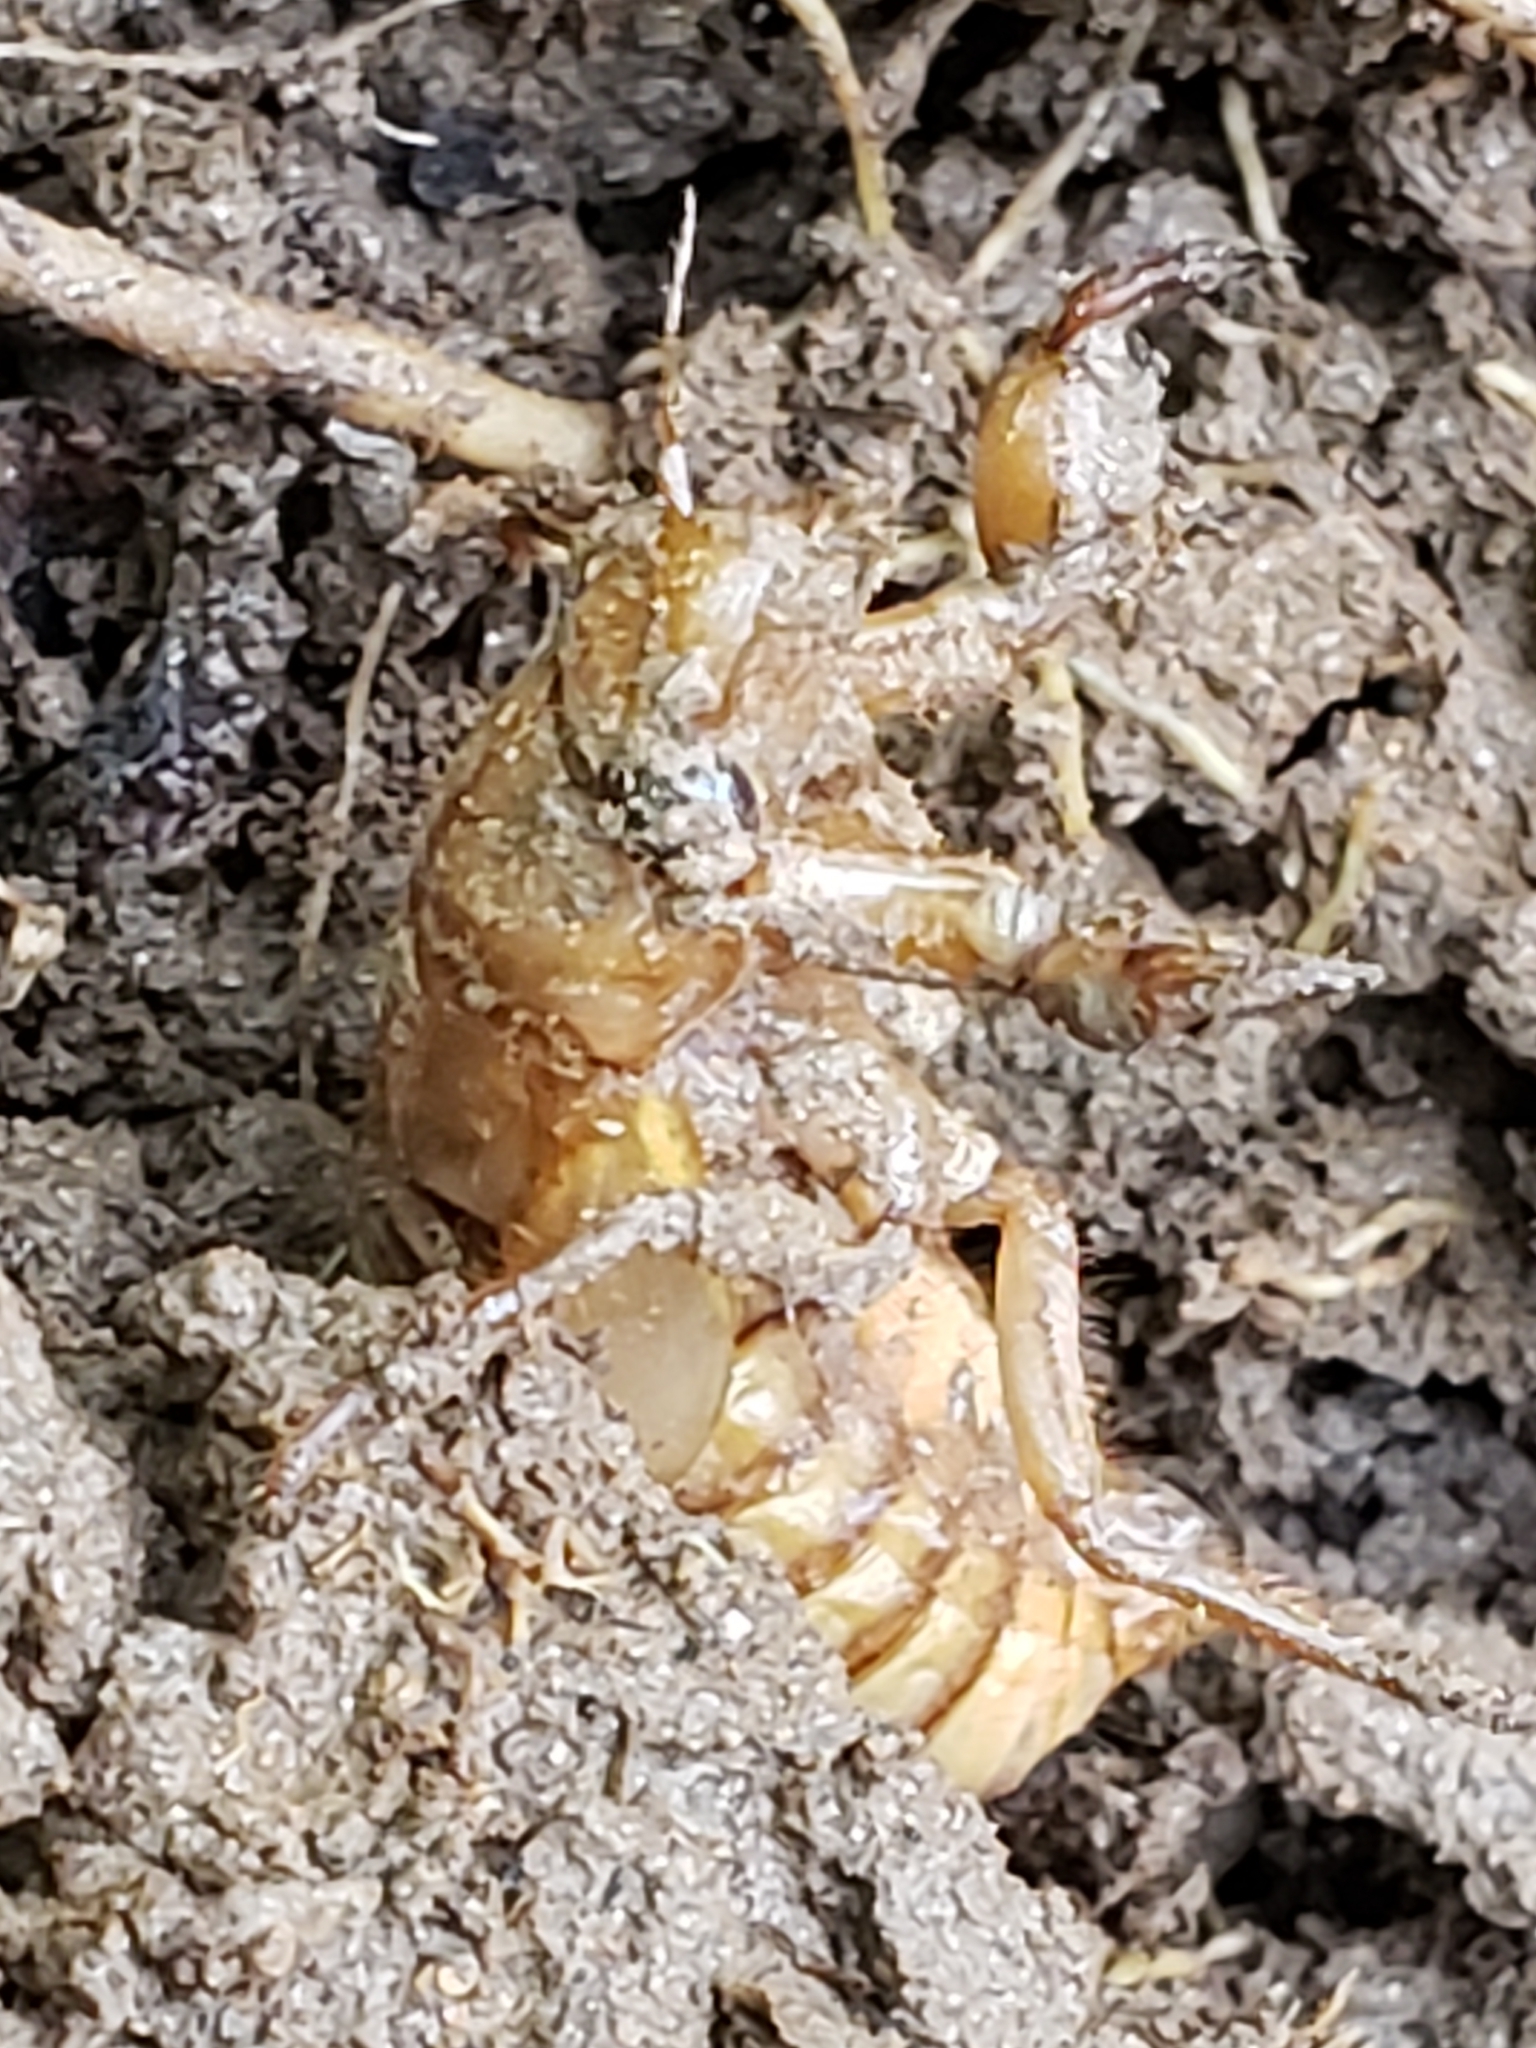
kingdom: Animalia
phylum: Arthropoda
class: Insecta
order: Hemiptera
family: Cicadidae
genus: Magicicada
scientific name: Magicicada
